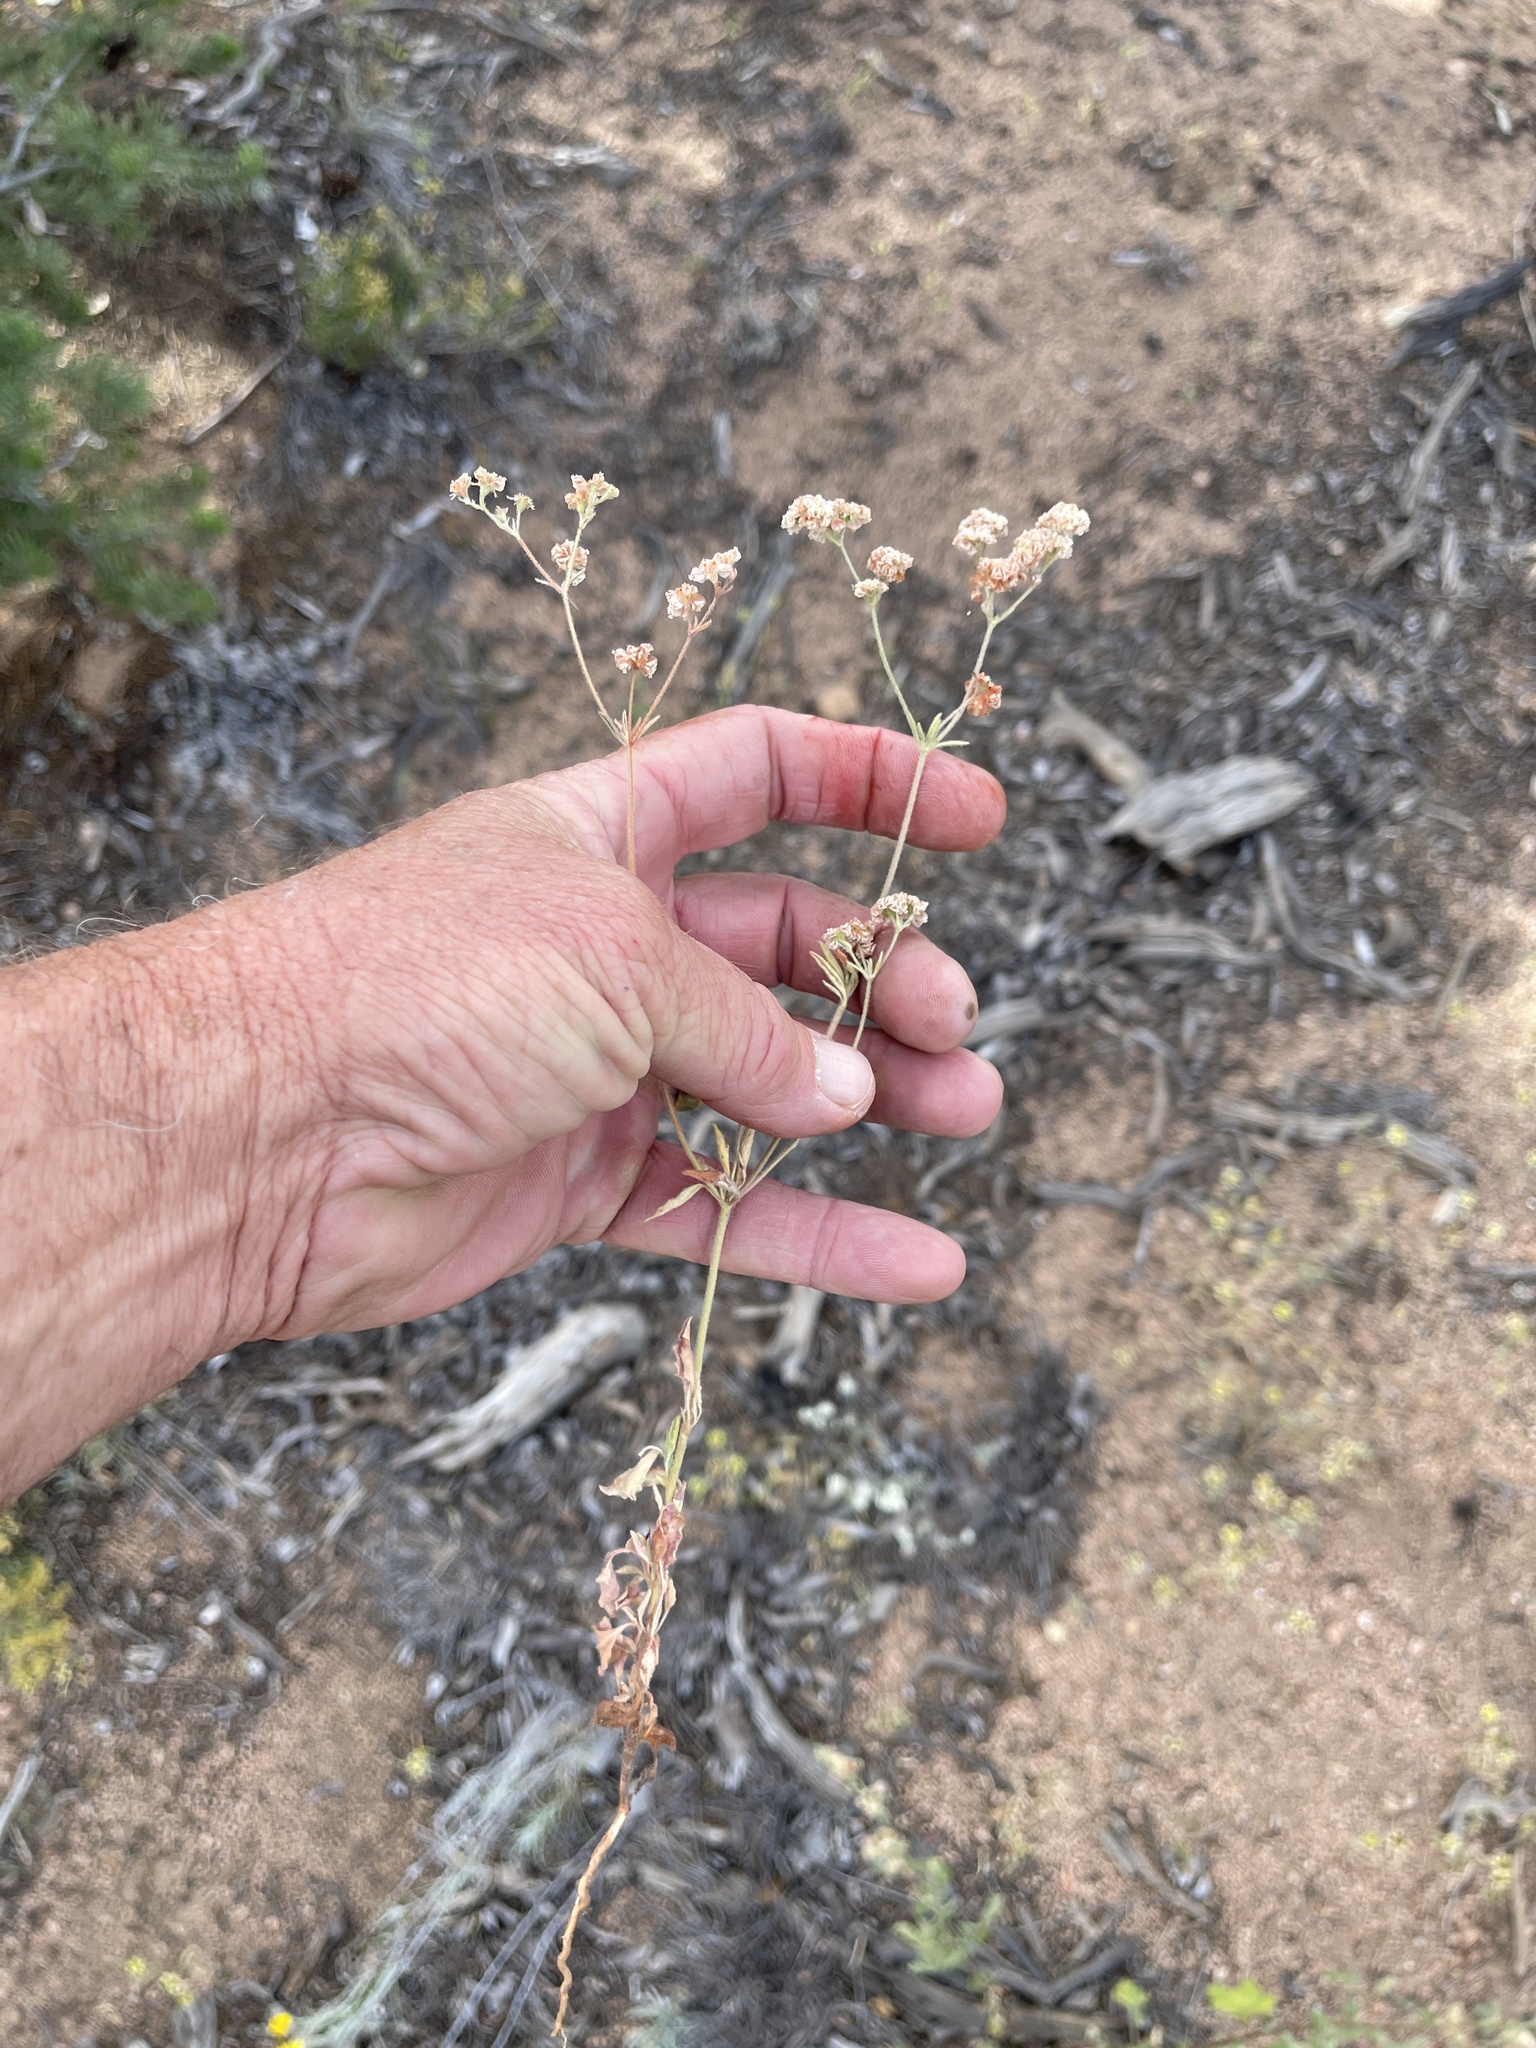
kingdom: Plantae
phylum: Tracheophyta
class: Magnoliopsida
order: Caryophyllales
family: Polygonaceae
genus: Eriogonum
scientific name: Eriogonum abertianum
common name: Abert's wild buckwheat
